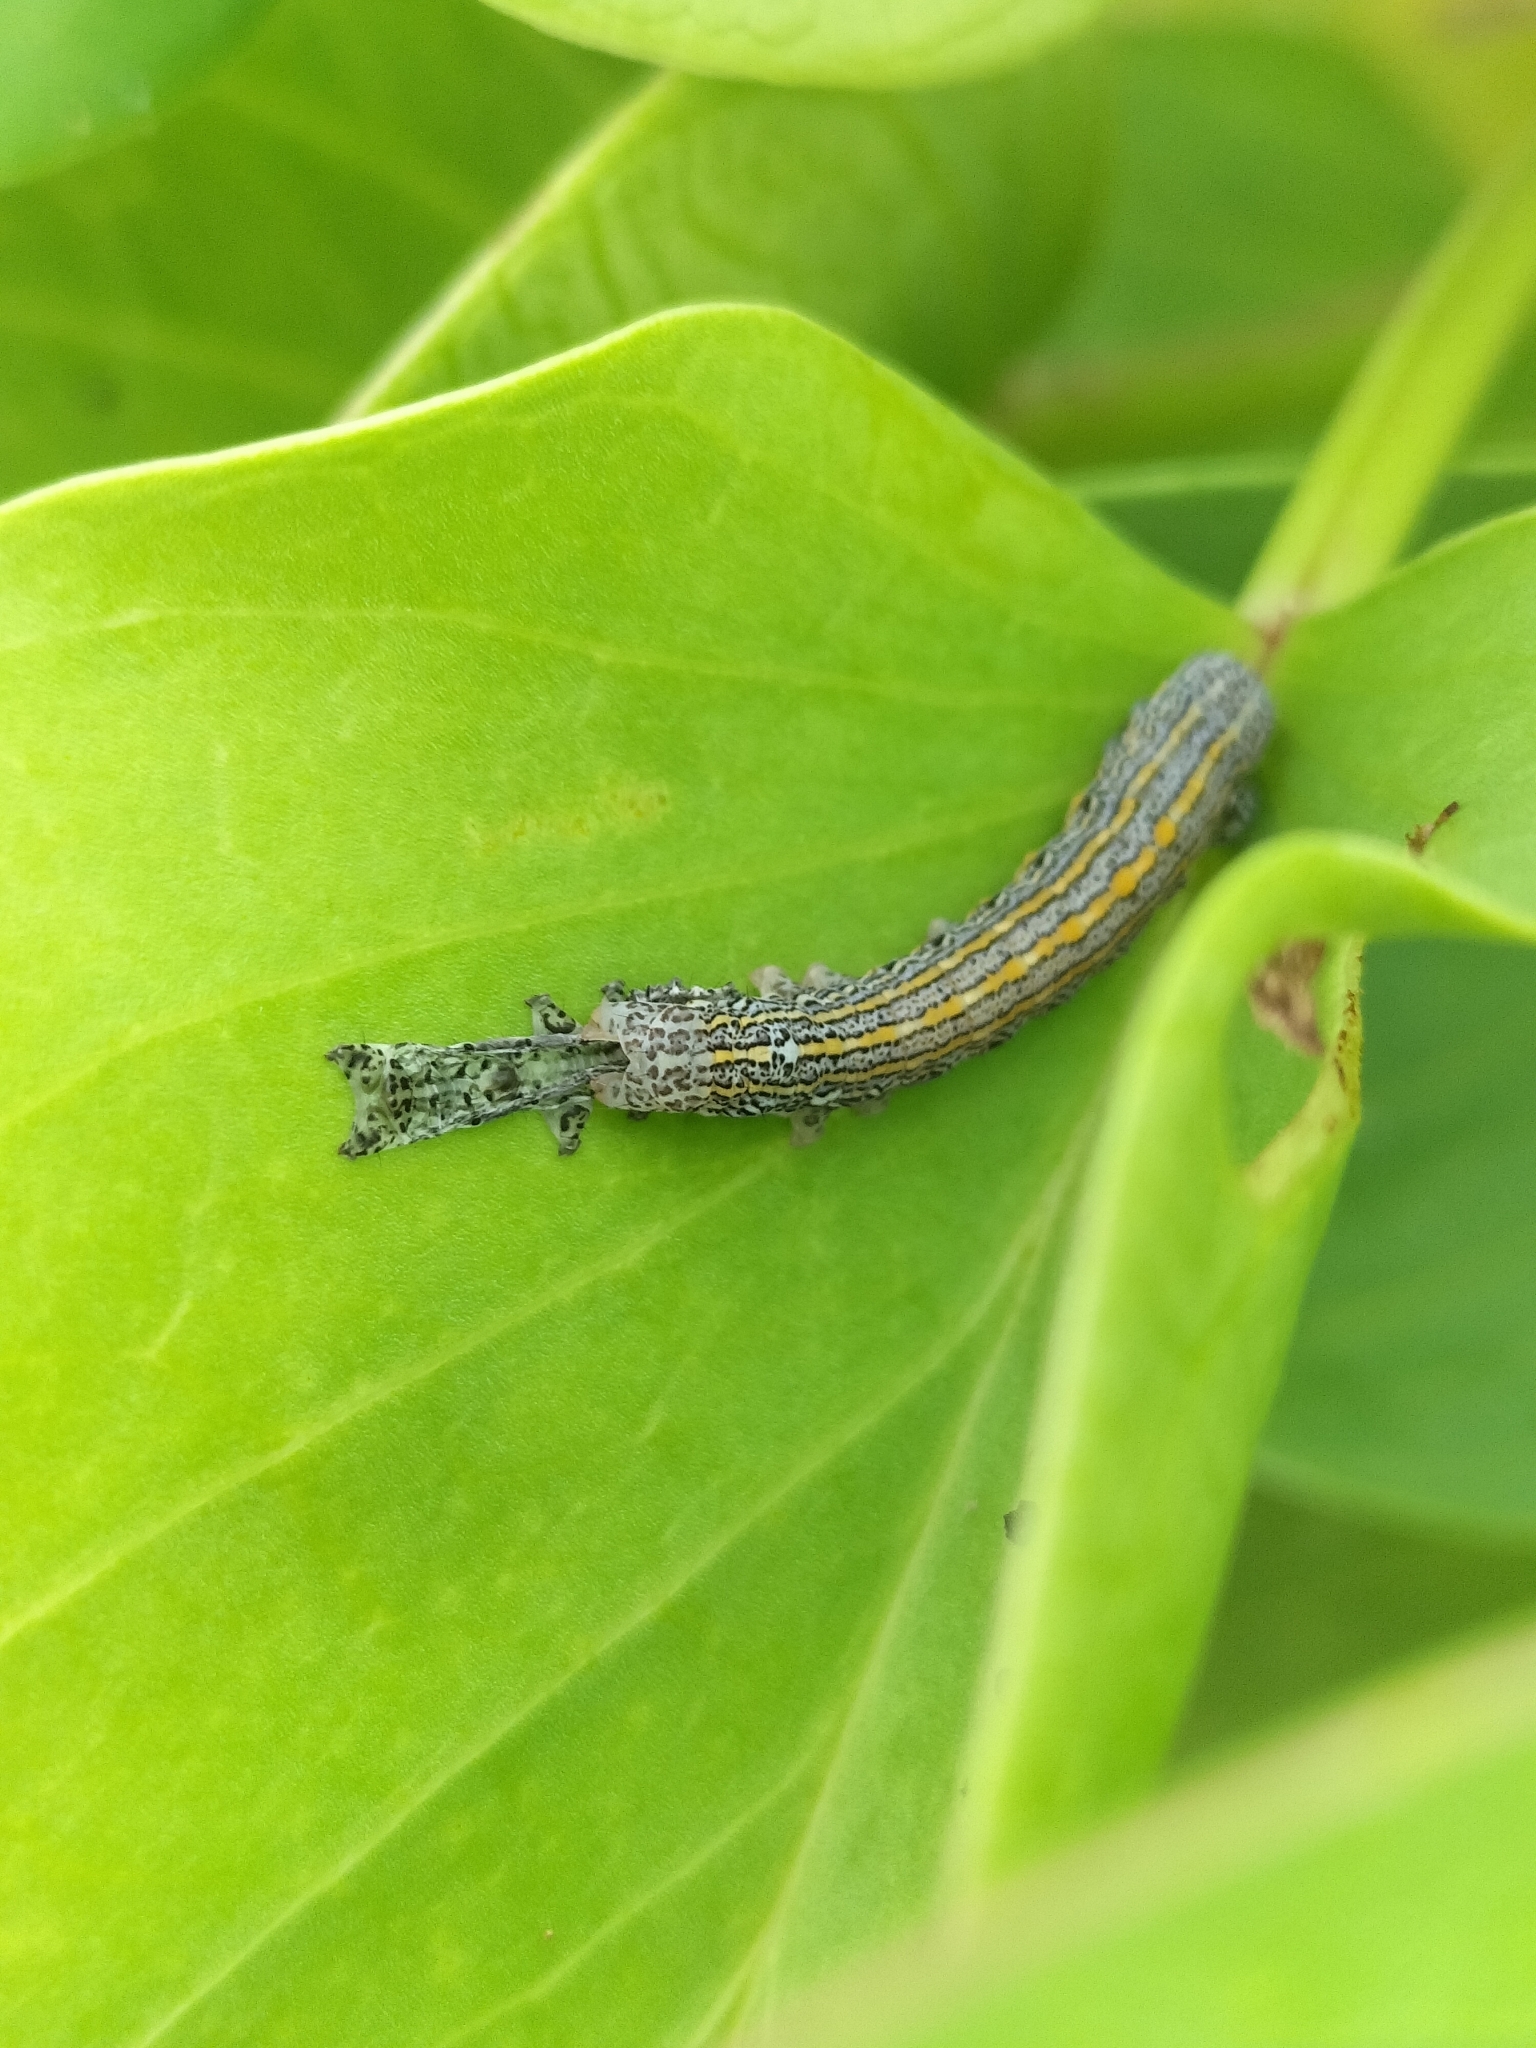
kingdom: Animalia
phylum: Arthropoda
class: Insecta
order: Lepidoptera
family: Noctuidae
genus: Aedia
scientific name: Aedia arctipennis
